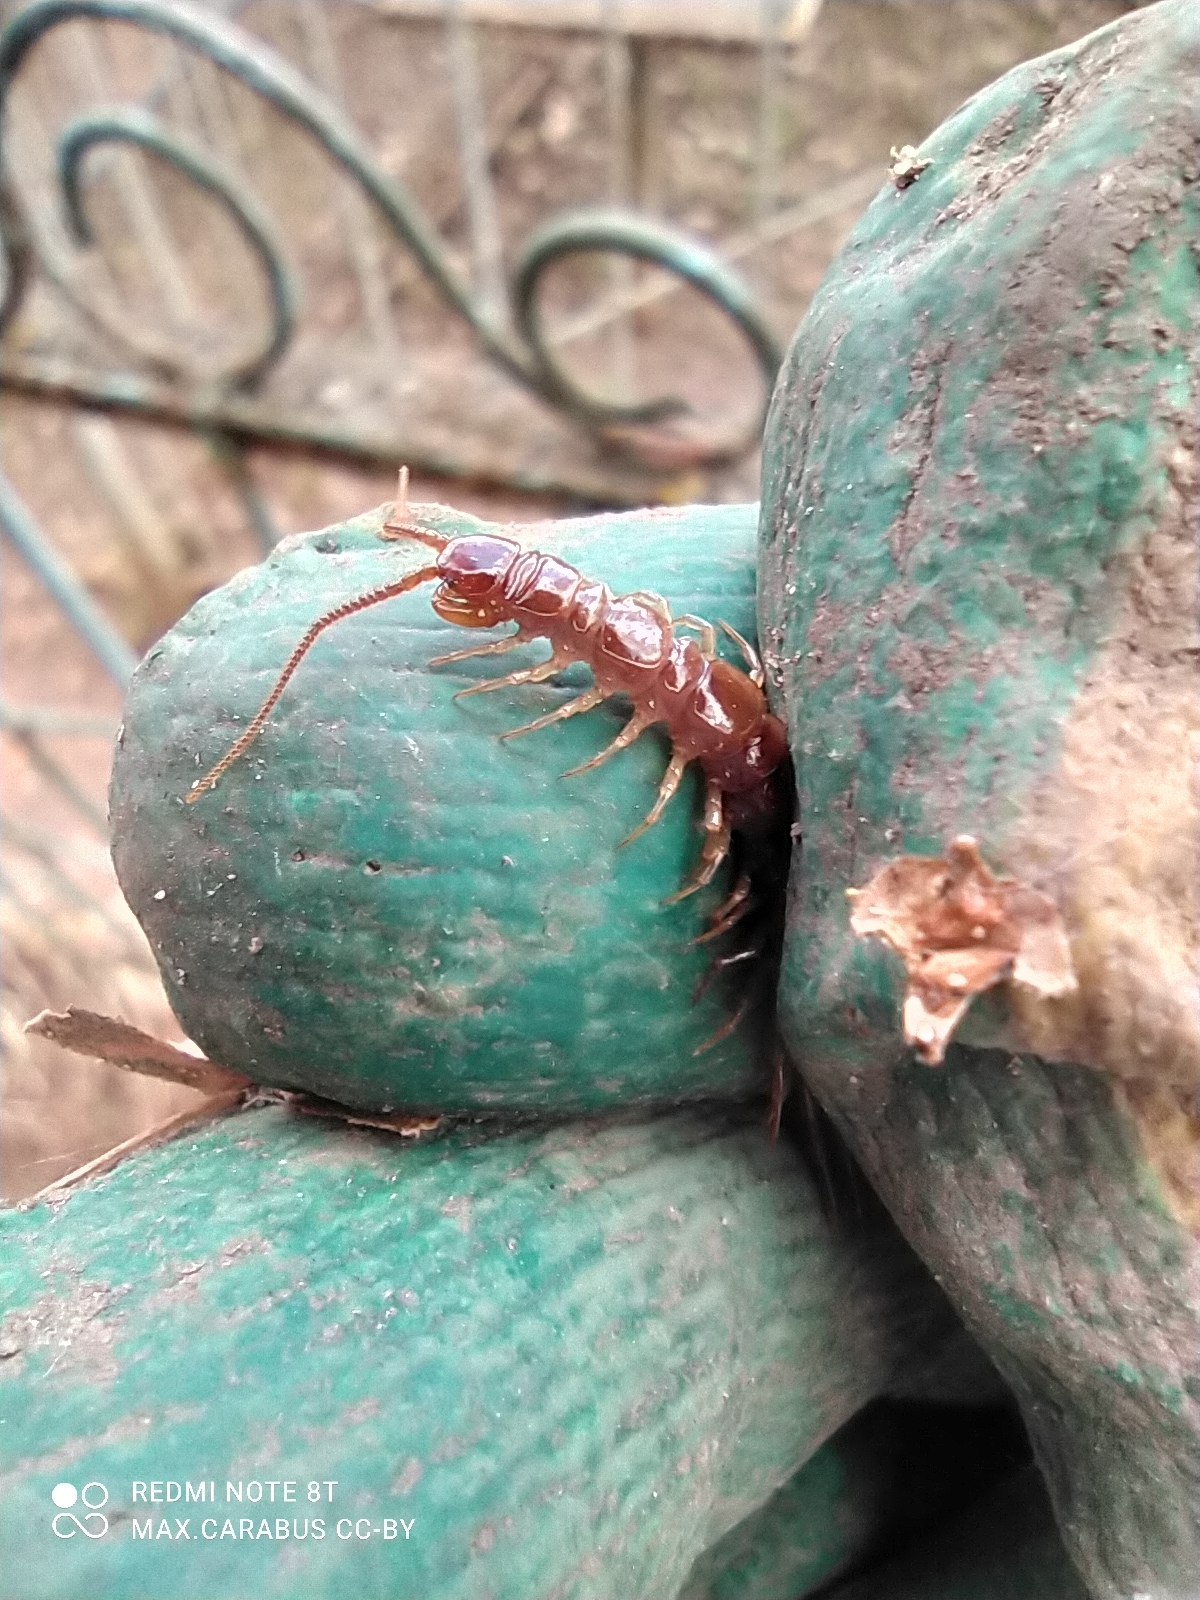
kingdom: Animalia
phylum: Arthropoda
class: Chilopoda
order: Lithobiomorpha
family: Lithobiidae
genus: Lithobius
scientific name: Lithobius forficatus
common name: Centipede
